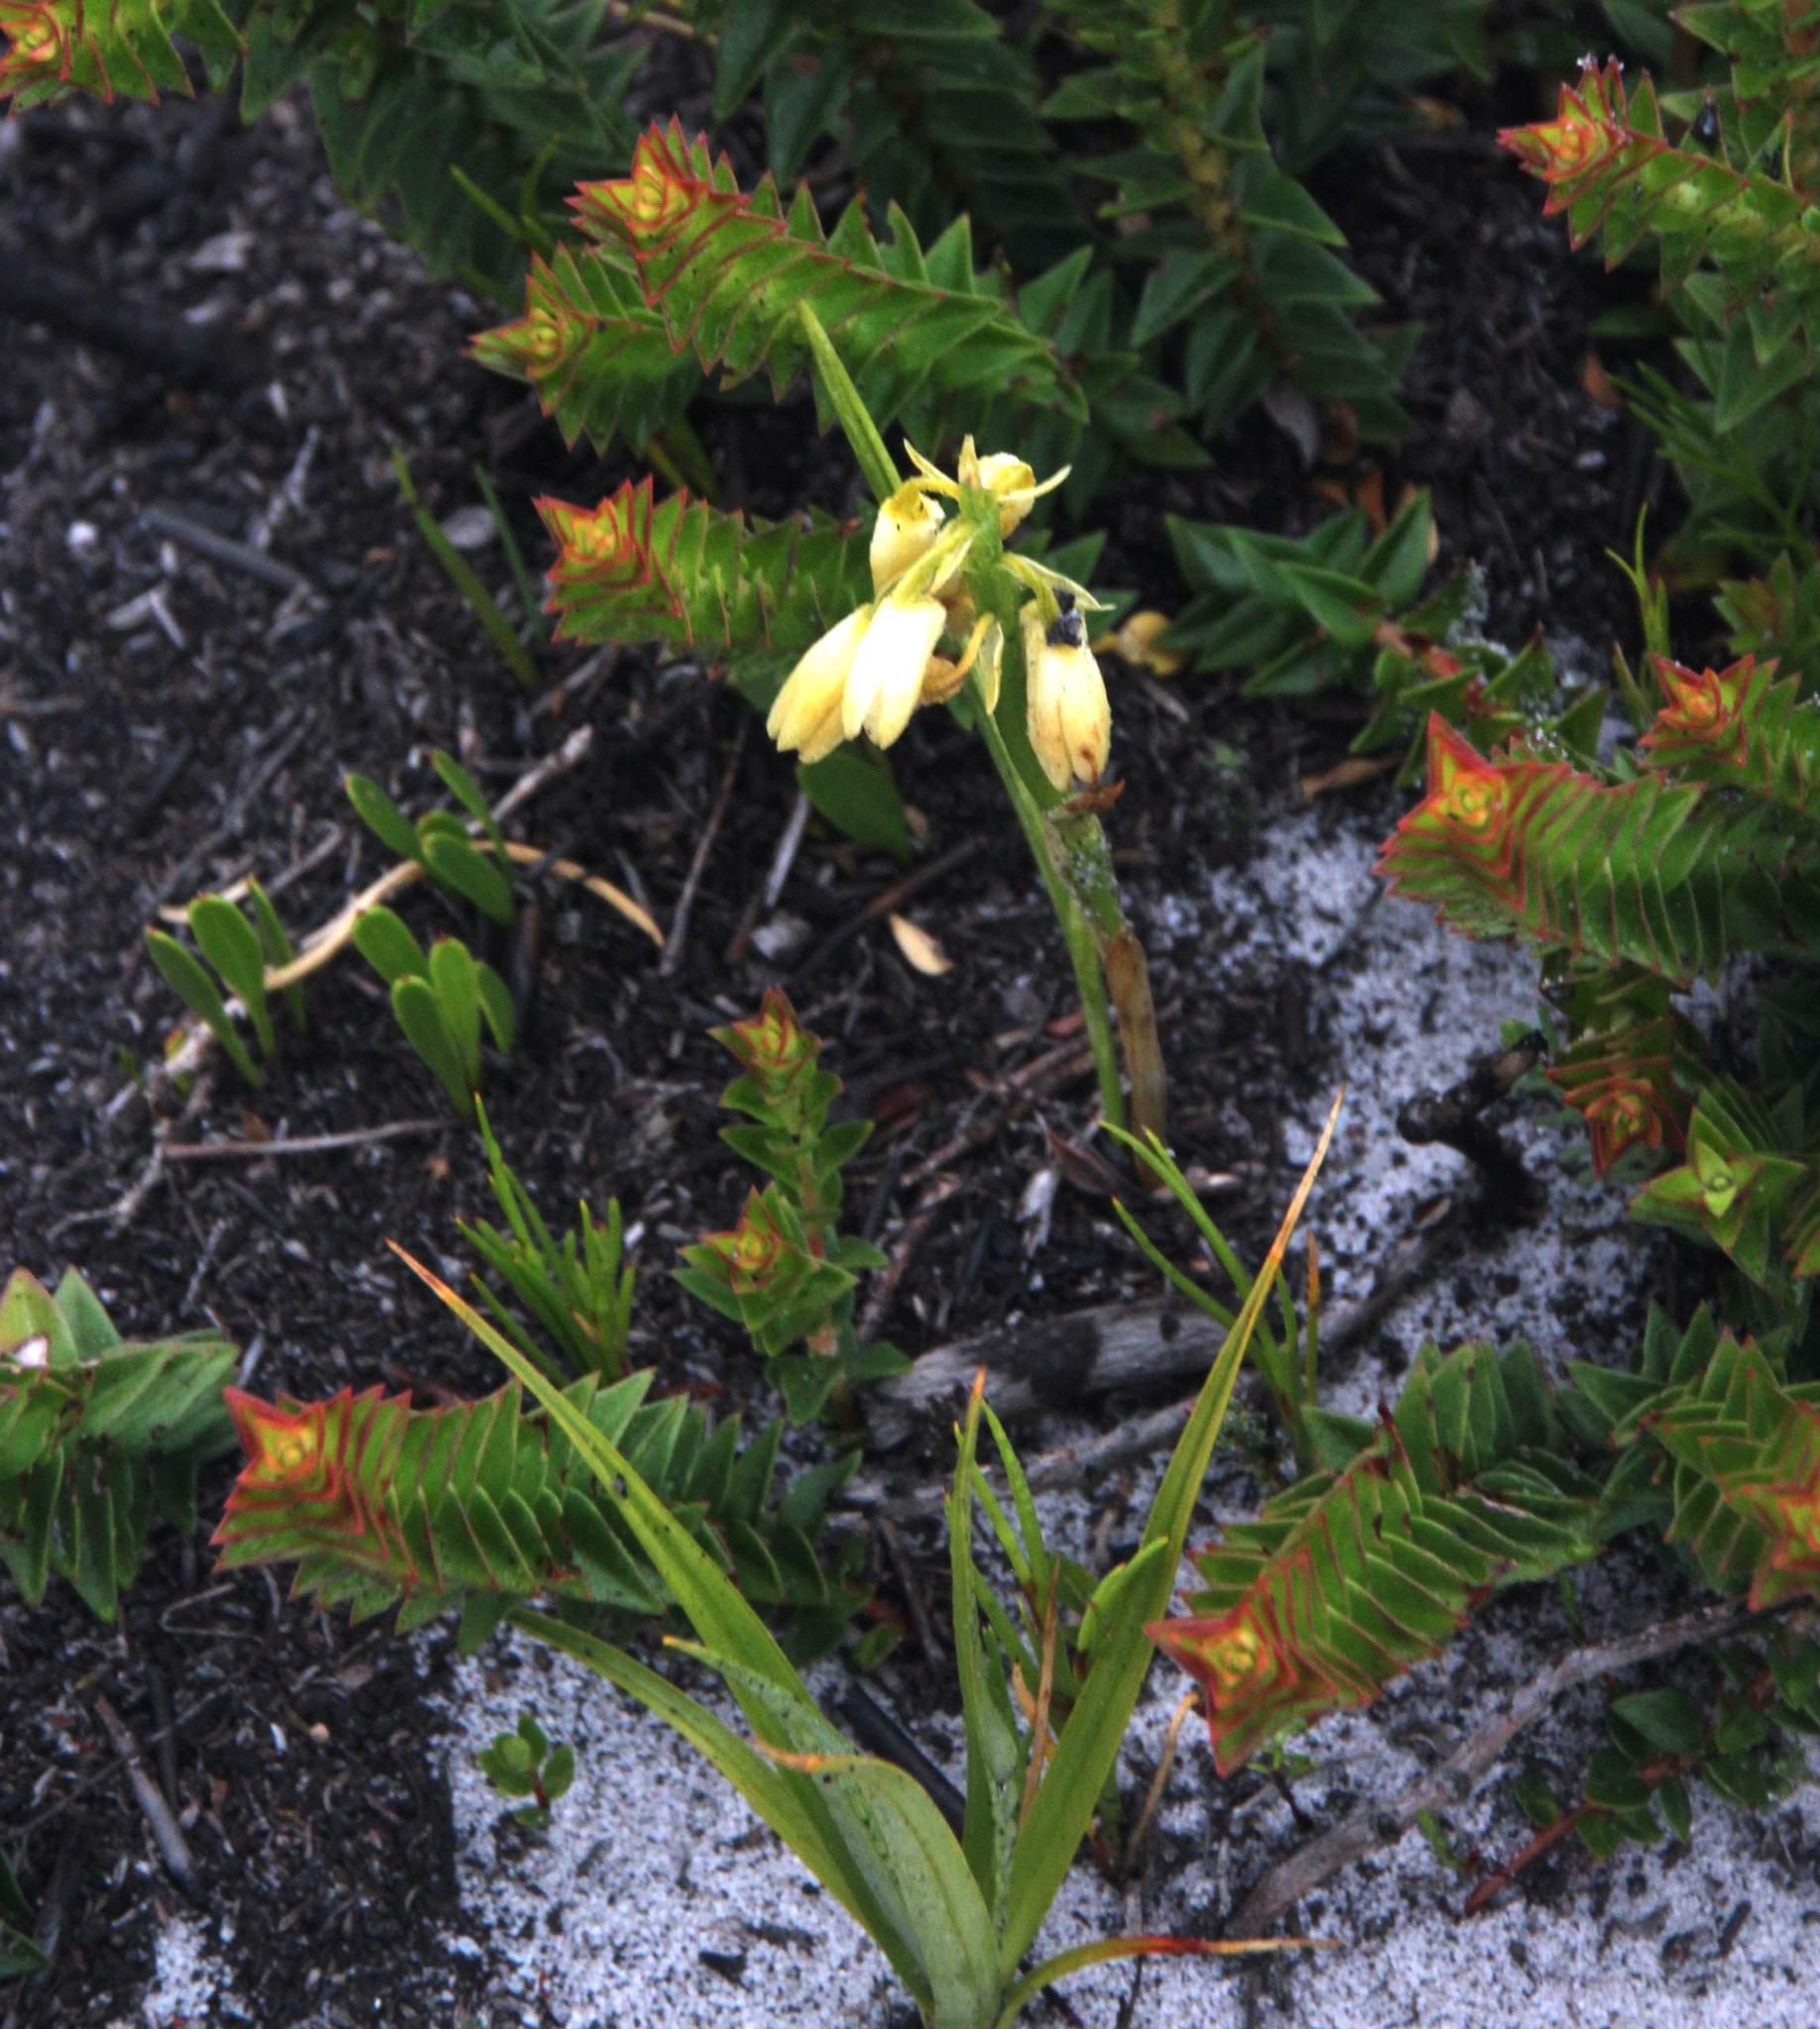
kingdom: Plantae
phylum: Tracheophyta
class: Liliopsida
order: Asparagales
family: Orchidaceae
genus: Eulophia
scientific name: Eulophia aculeata
